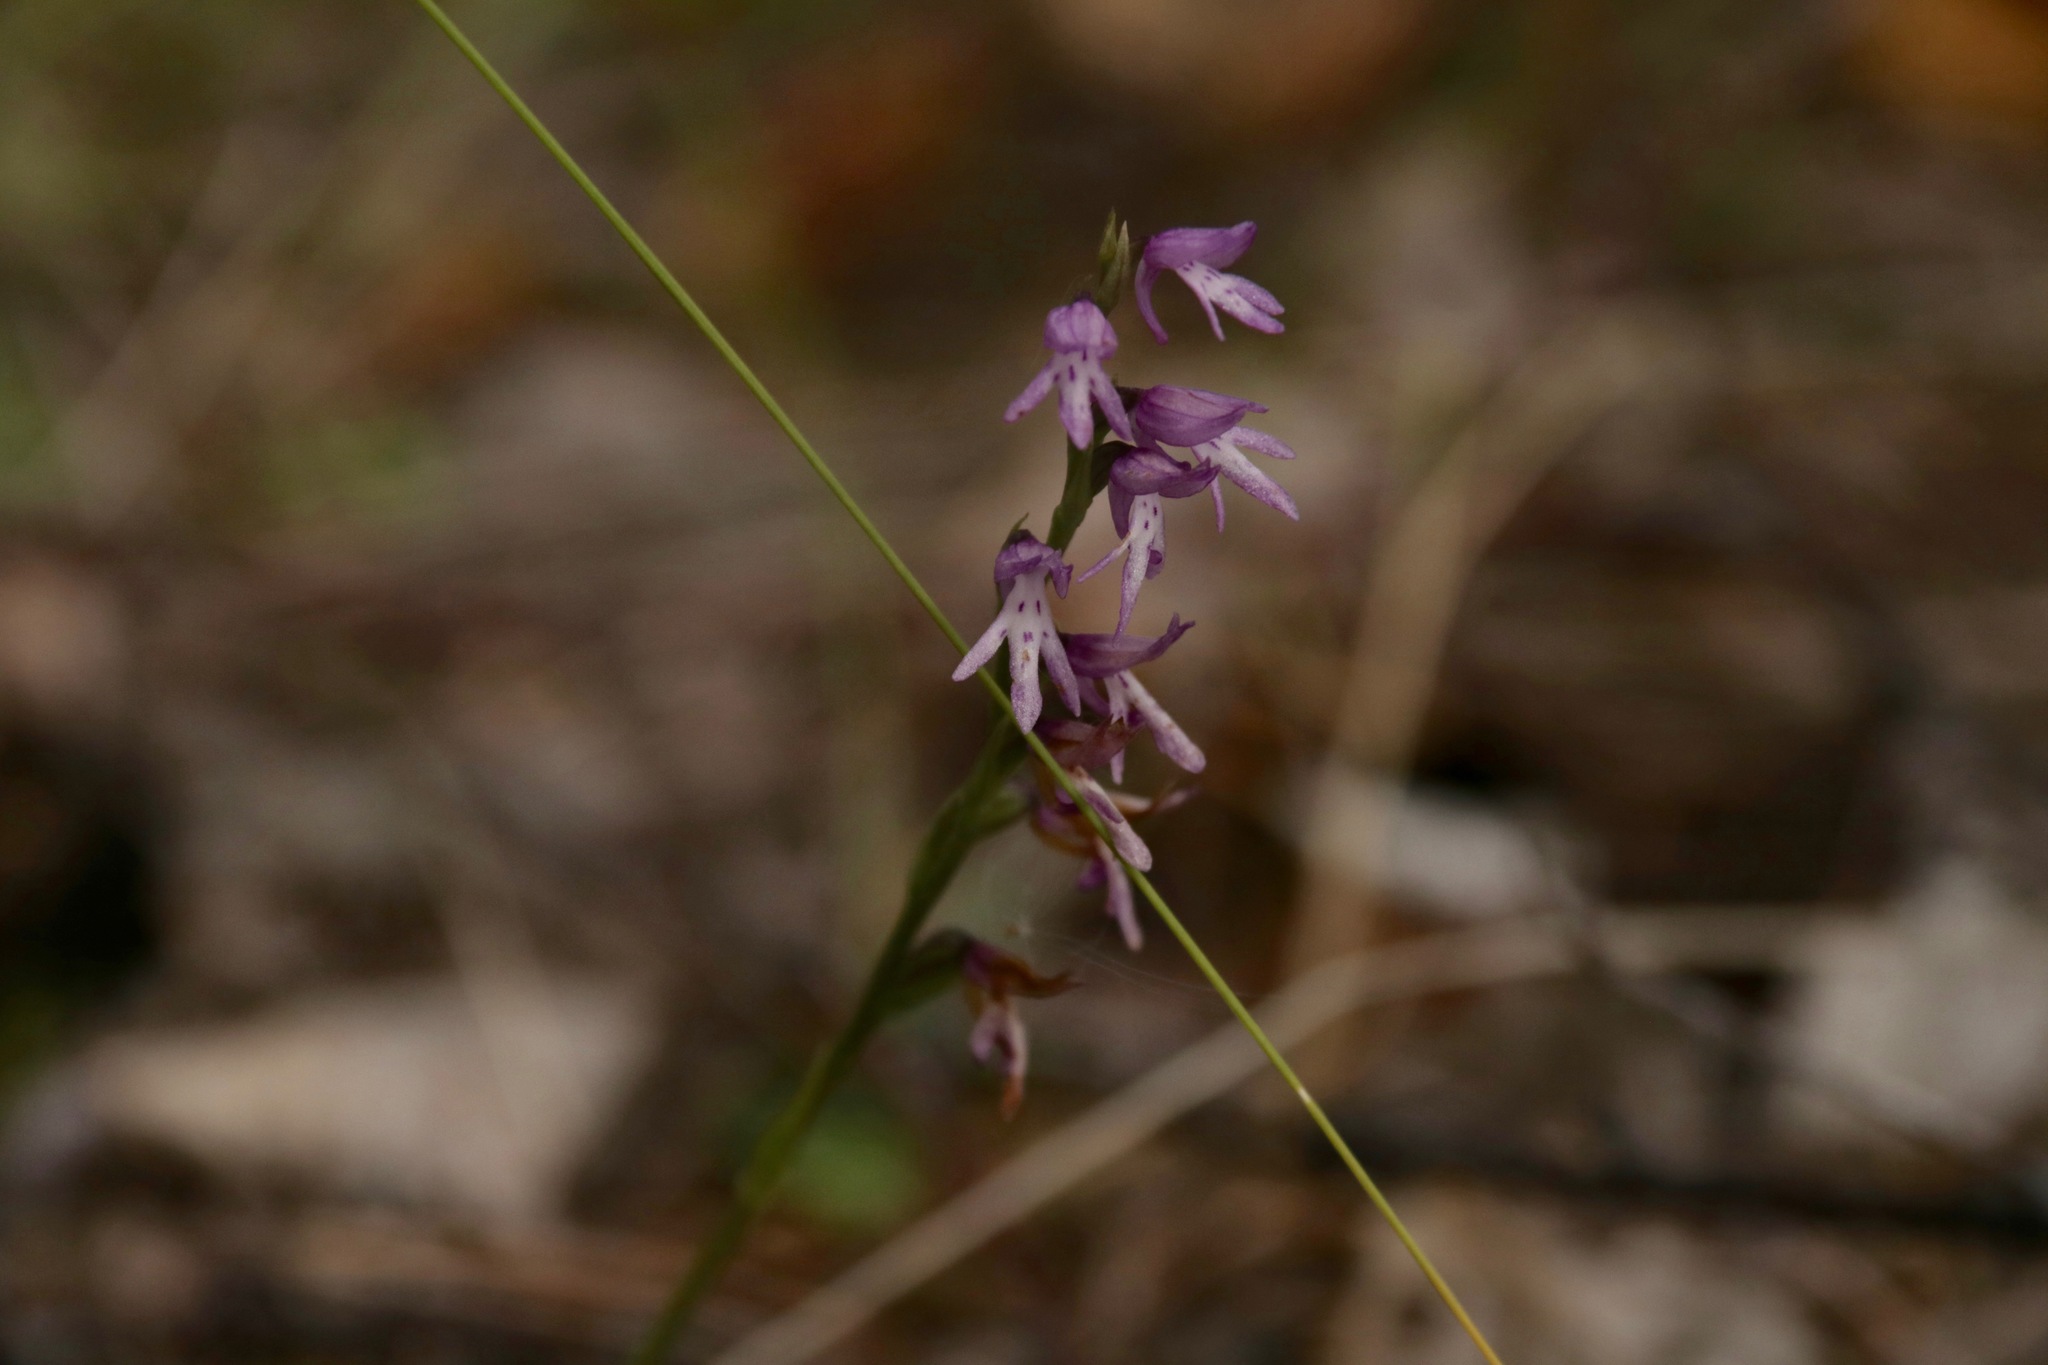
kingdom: Plantae
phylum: Tracheophyta
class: Liliopsida
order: Asparagales
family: Orchidaceae
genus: Hemipilia
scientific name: Hemipilia cucullata
